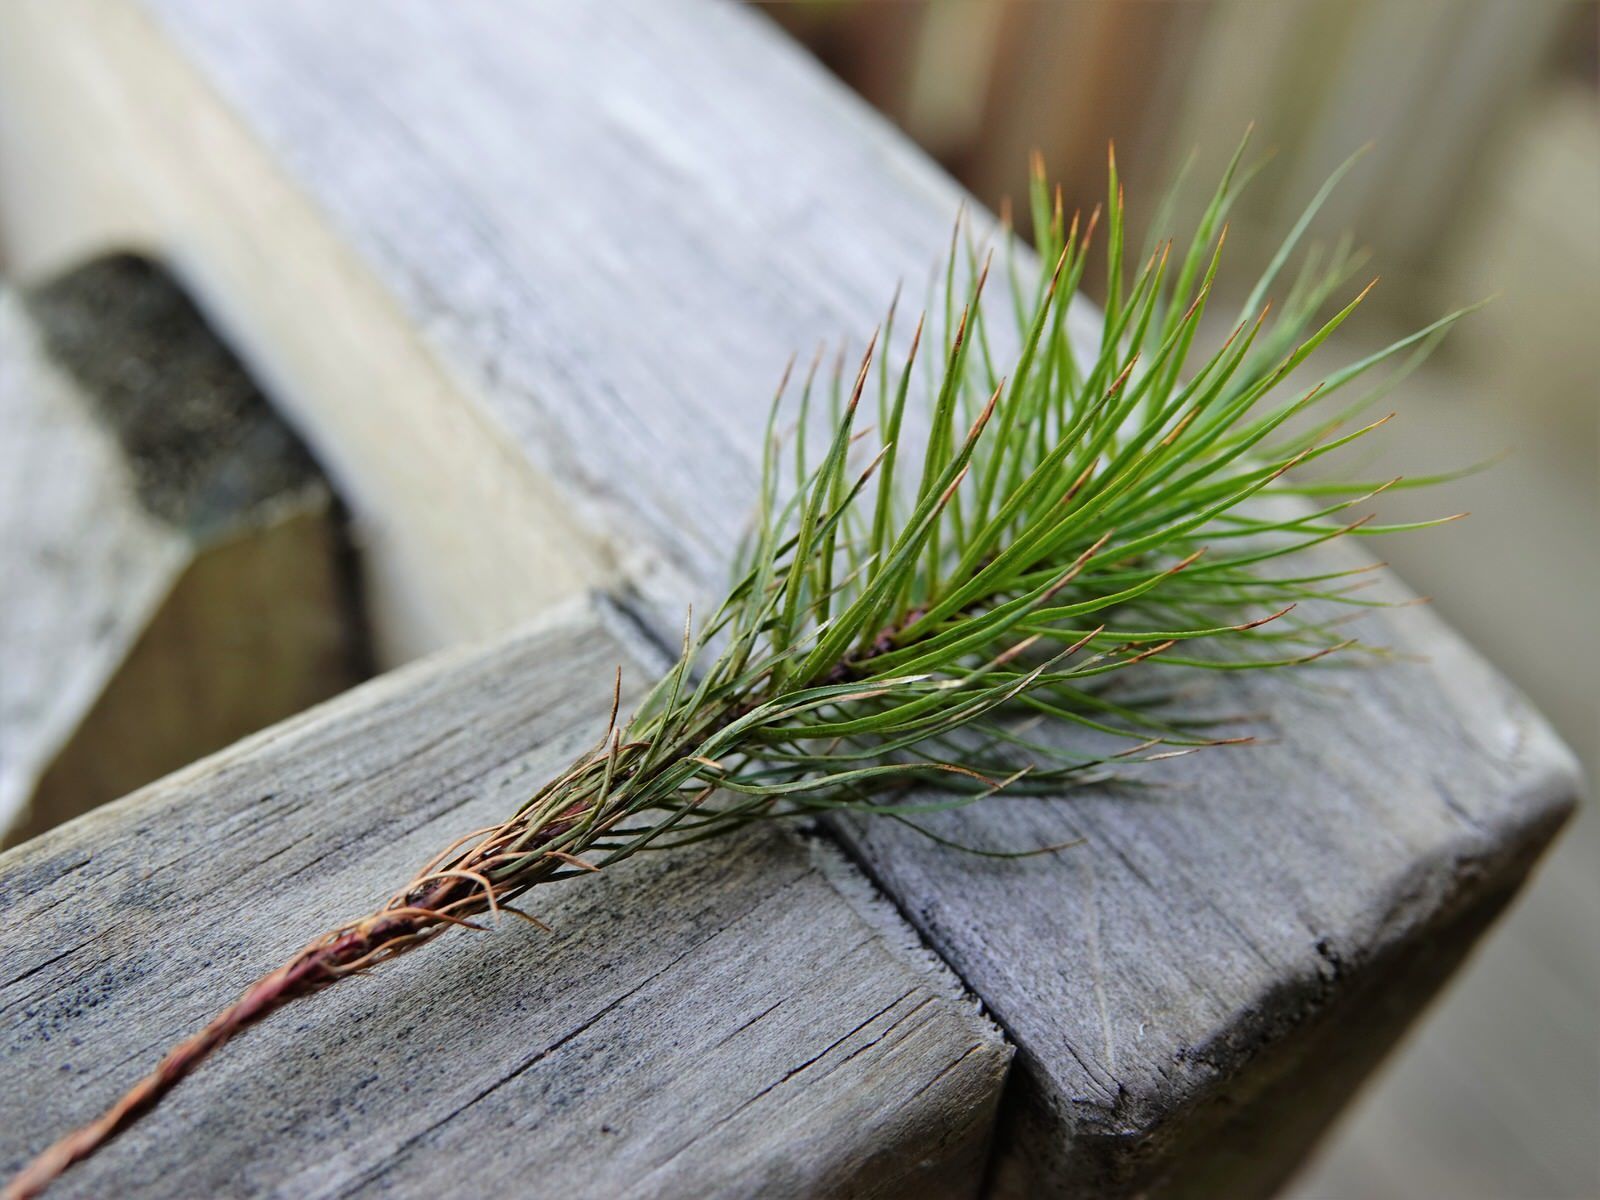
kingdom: Plantae
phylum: Bryophyta
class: Polytrichopsida
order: Polytrichales
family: Polytrichaceae
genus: Dawsonia
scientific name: Dawsonia superba
